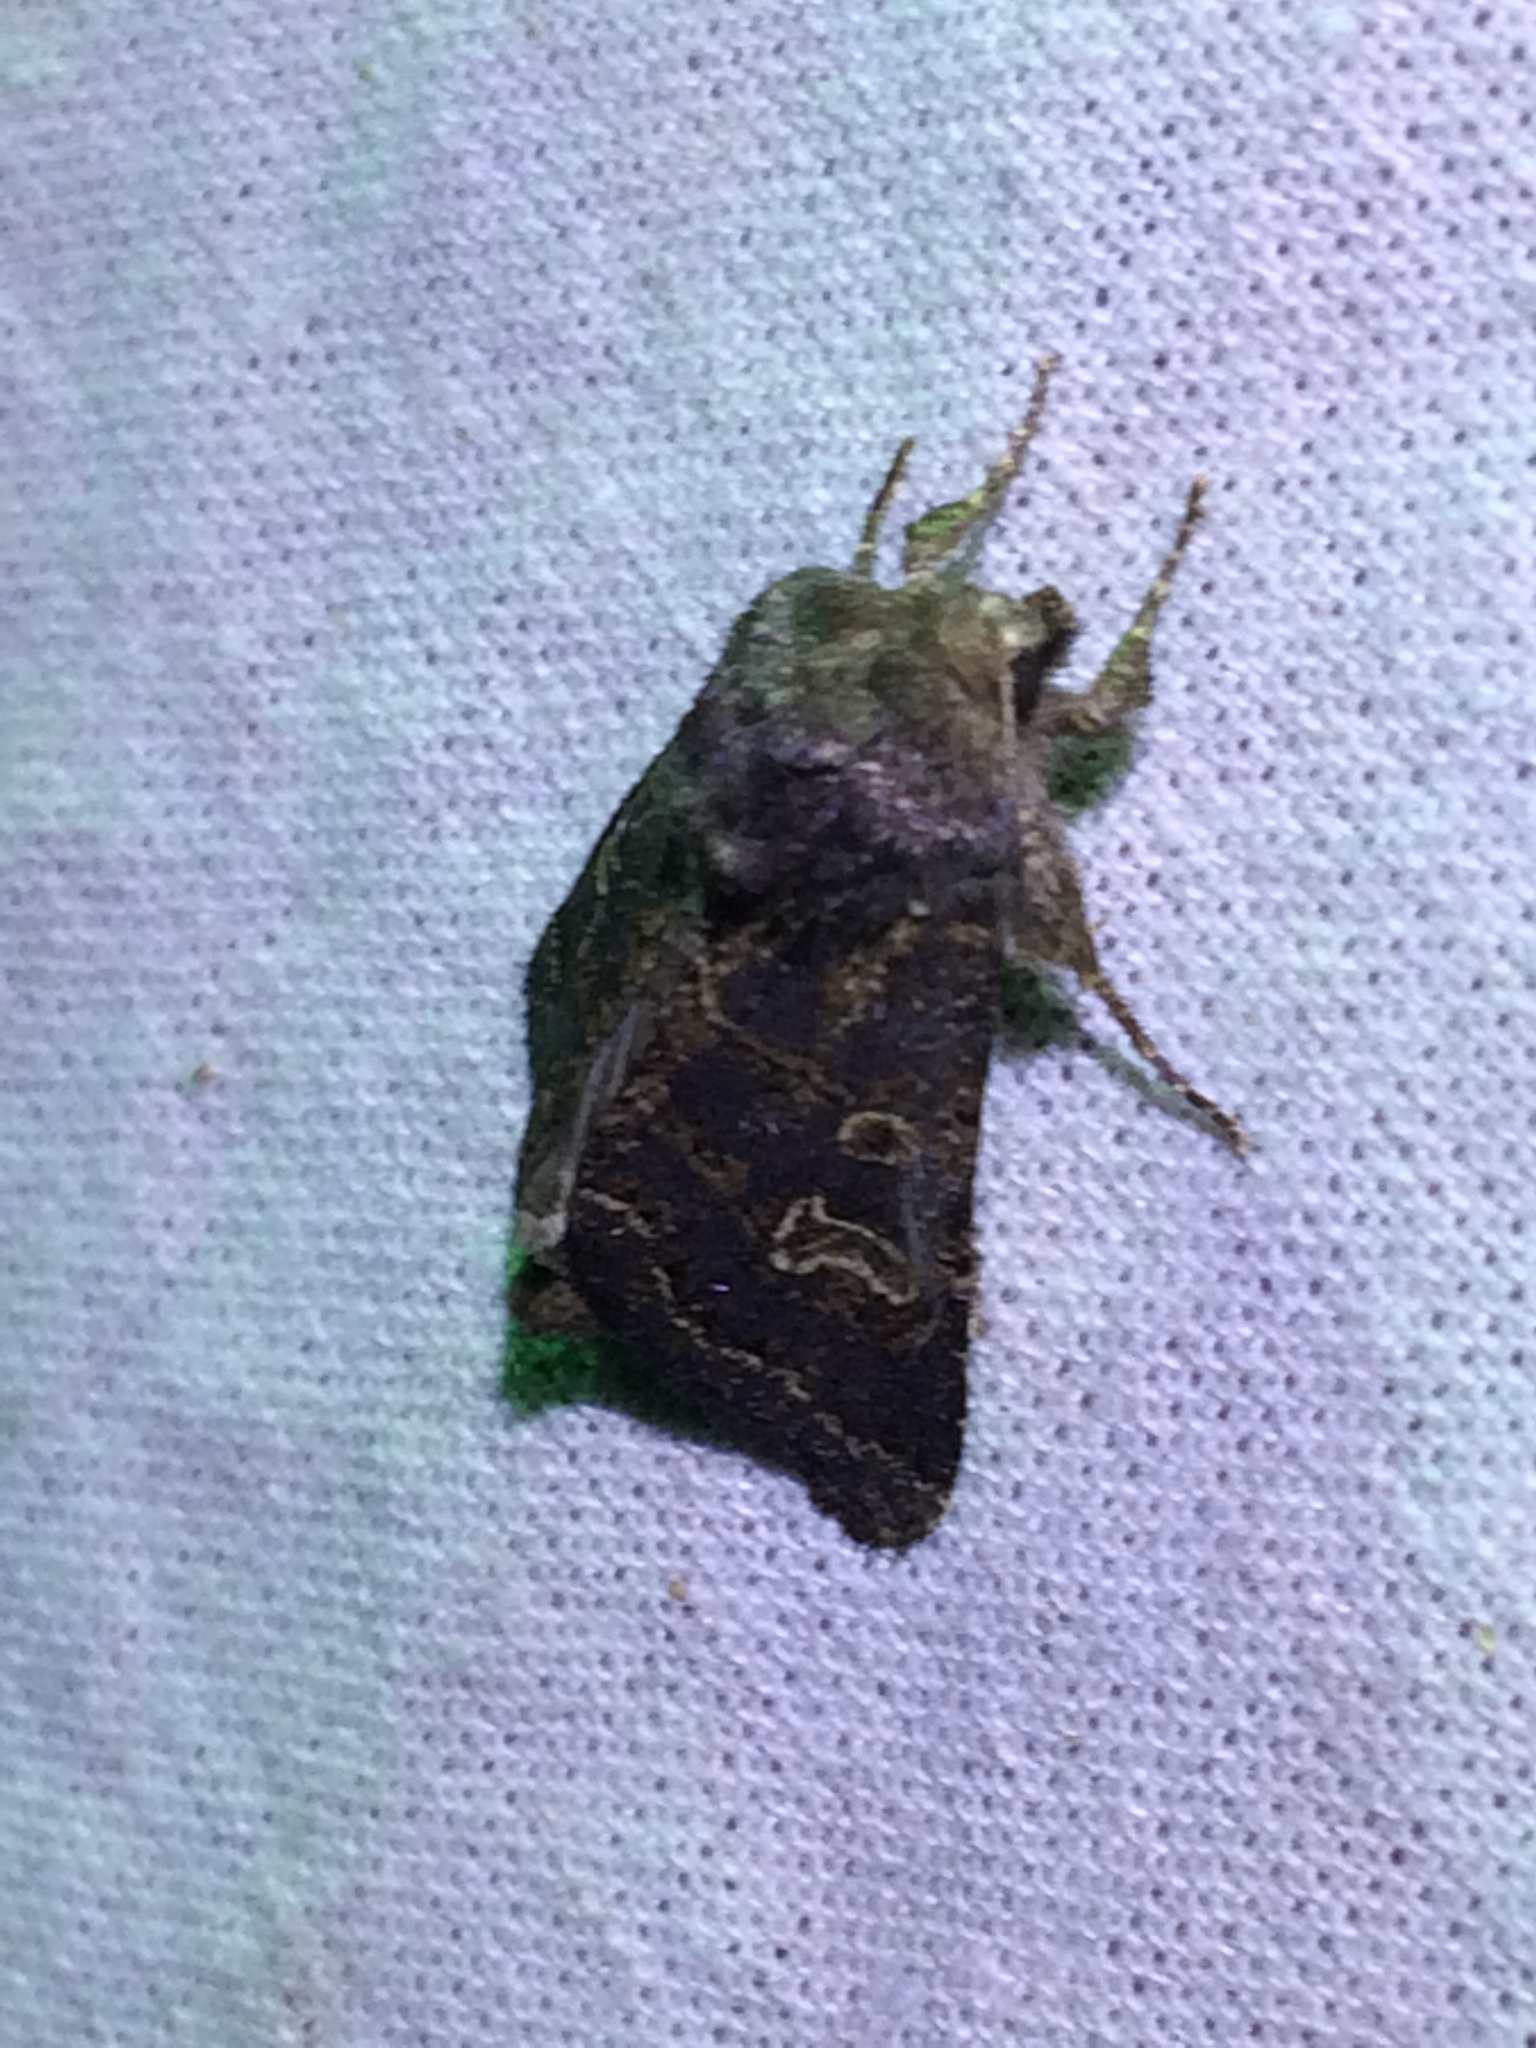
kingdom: Animalia
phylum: Arthropoda
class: Insecta
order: Lepidoptera
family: Noctuidae
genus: Tholera
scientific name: Tholera cespitis
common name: Hedge rustic
